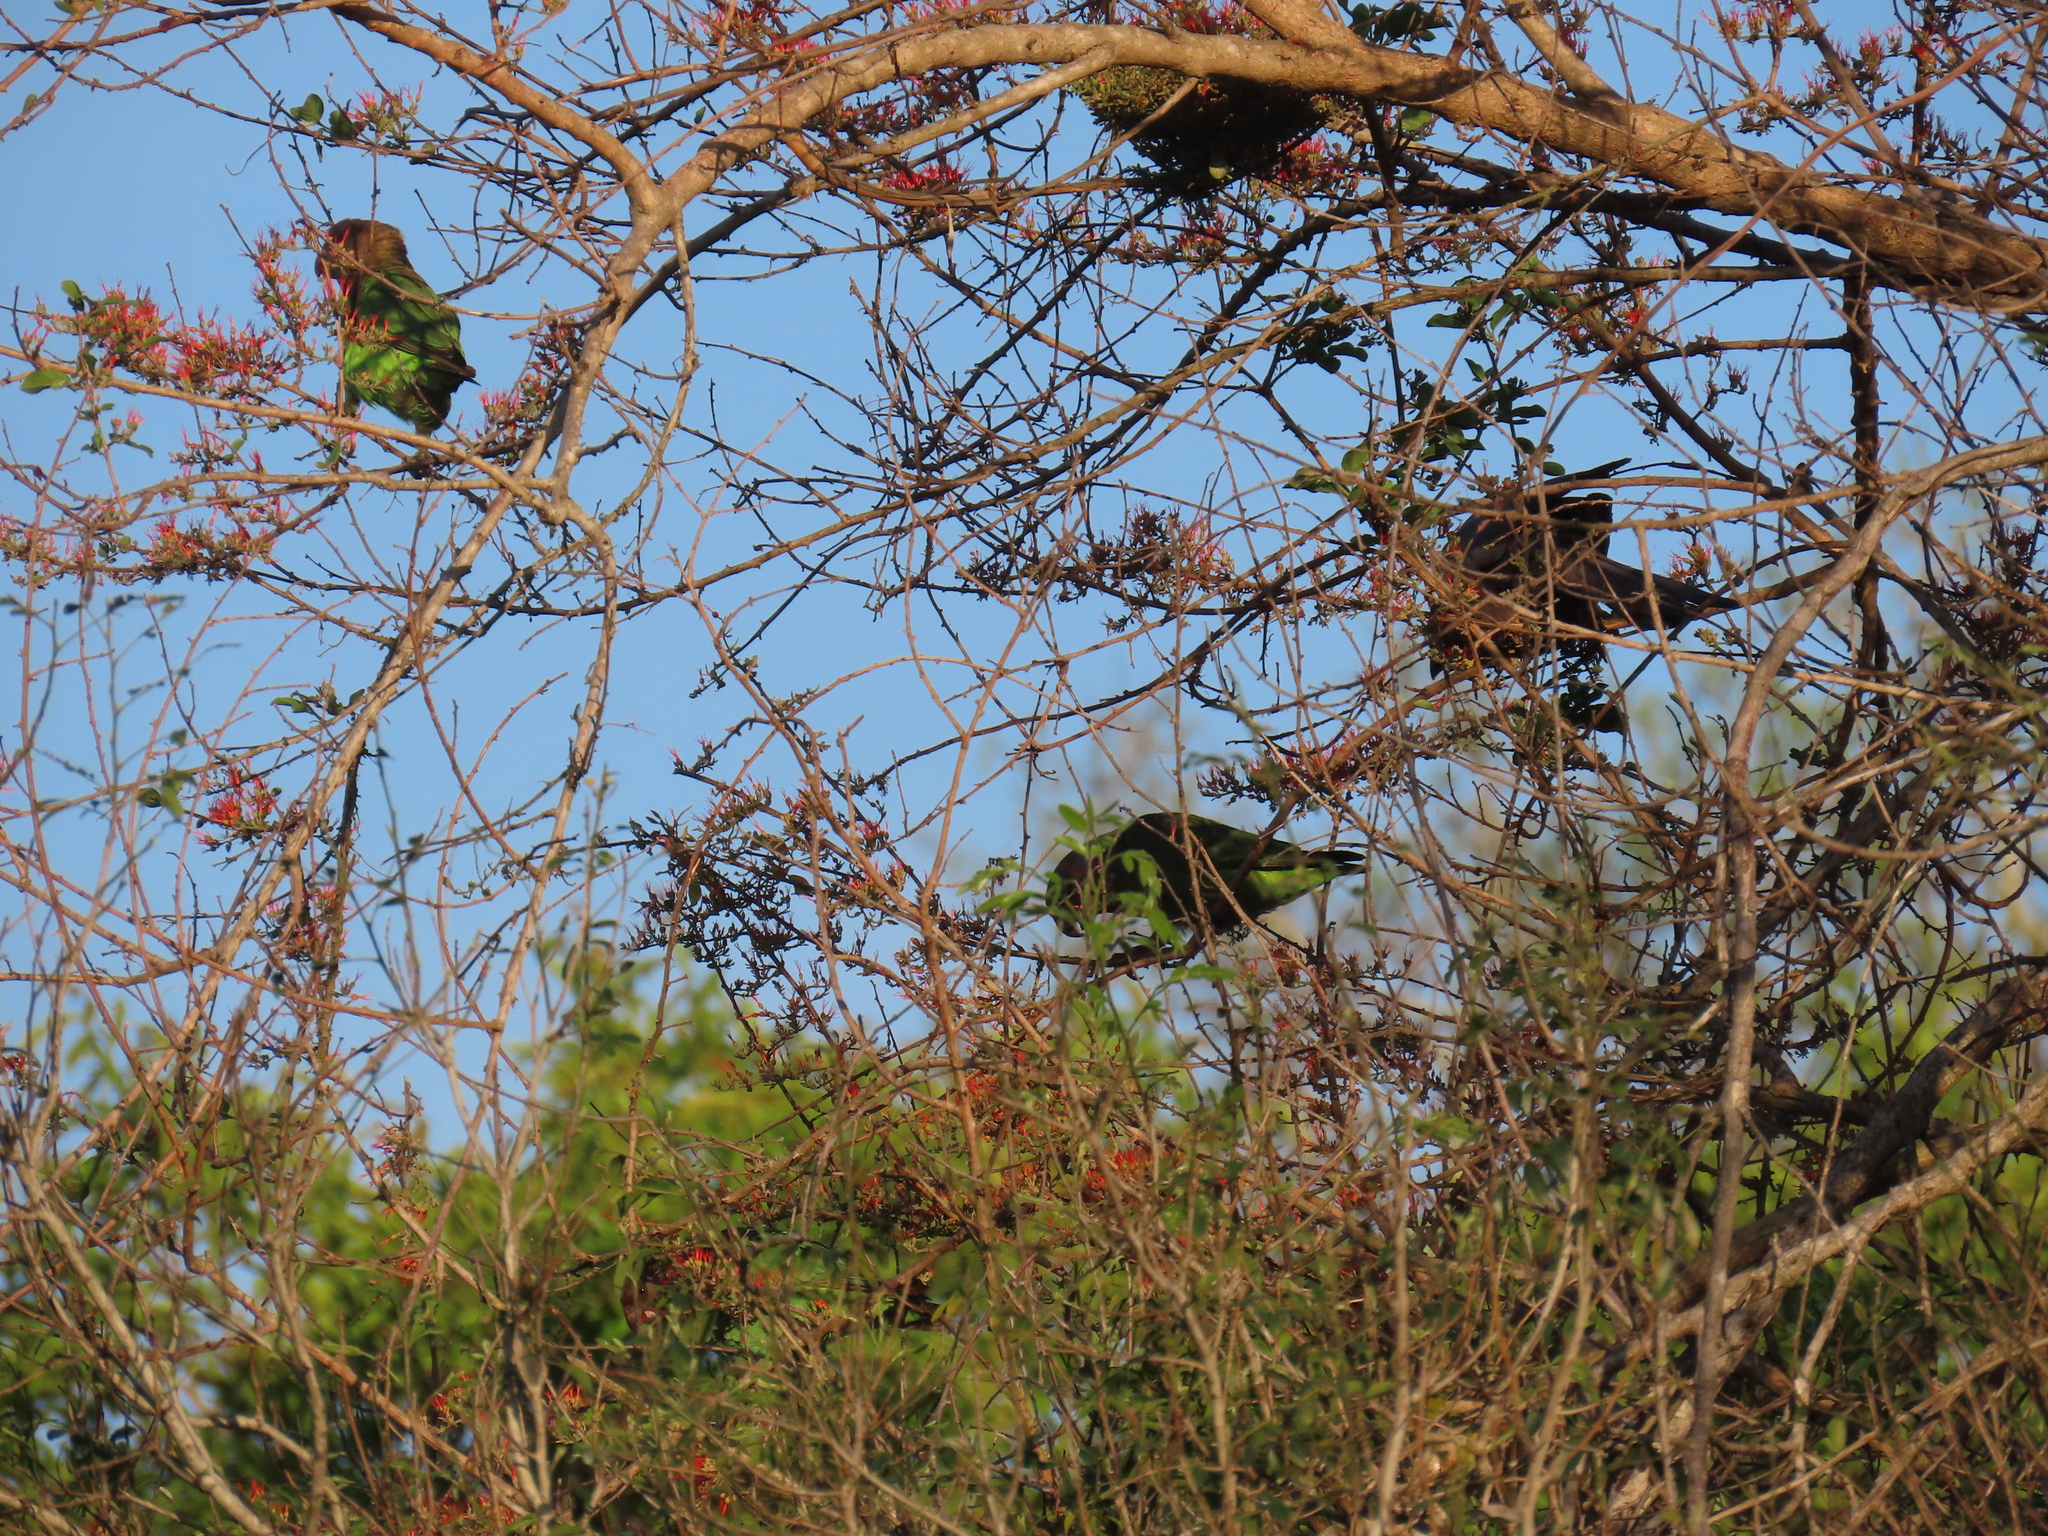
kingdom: Animalia
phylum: Chordata
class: Aves
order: Psittaciformes
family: Psittacidae
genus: Poicephalus
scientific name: Poicephalus cryptoxanthus
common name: Brown-headed parrot
